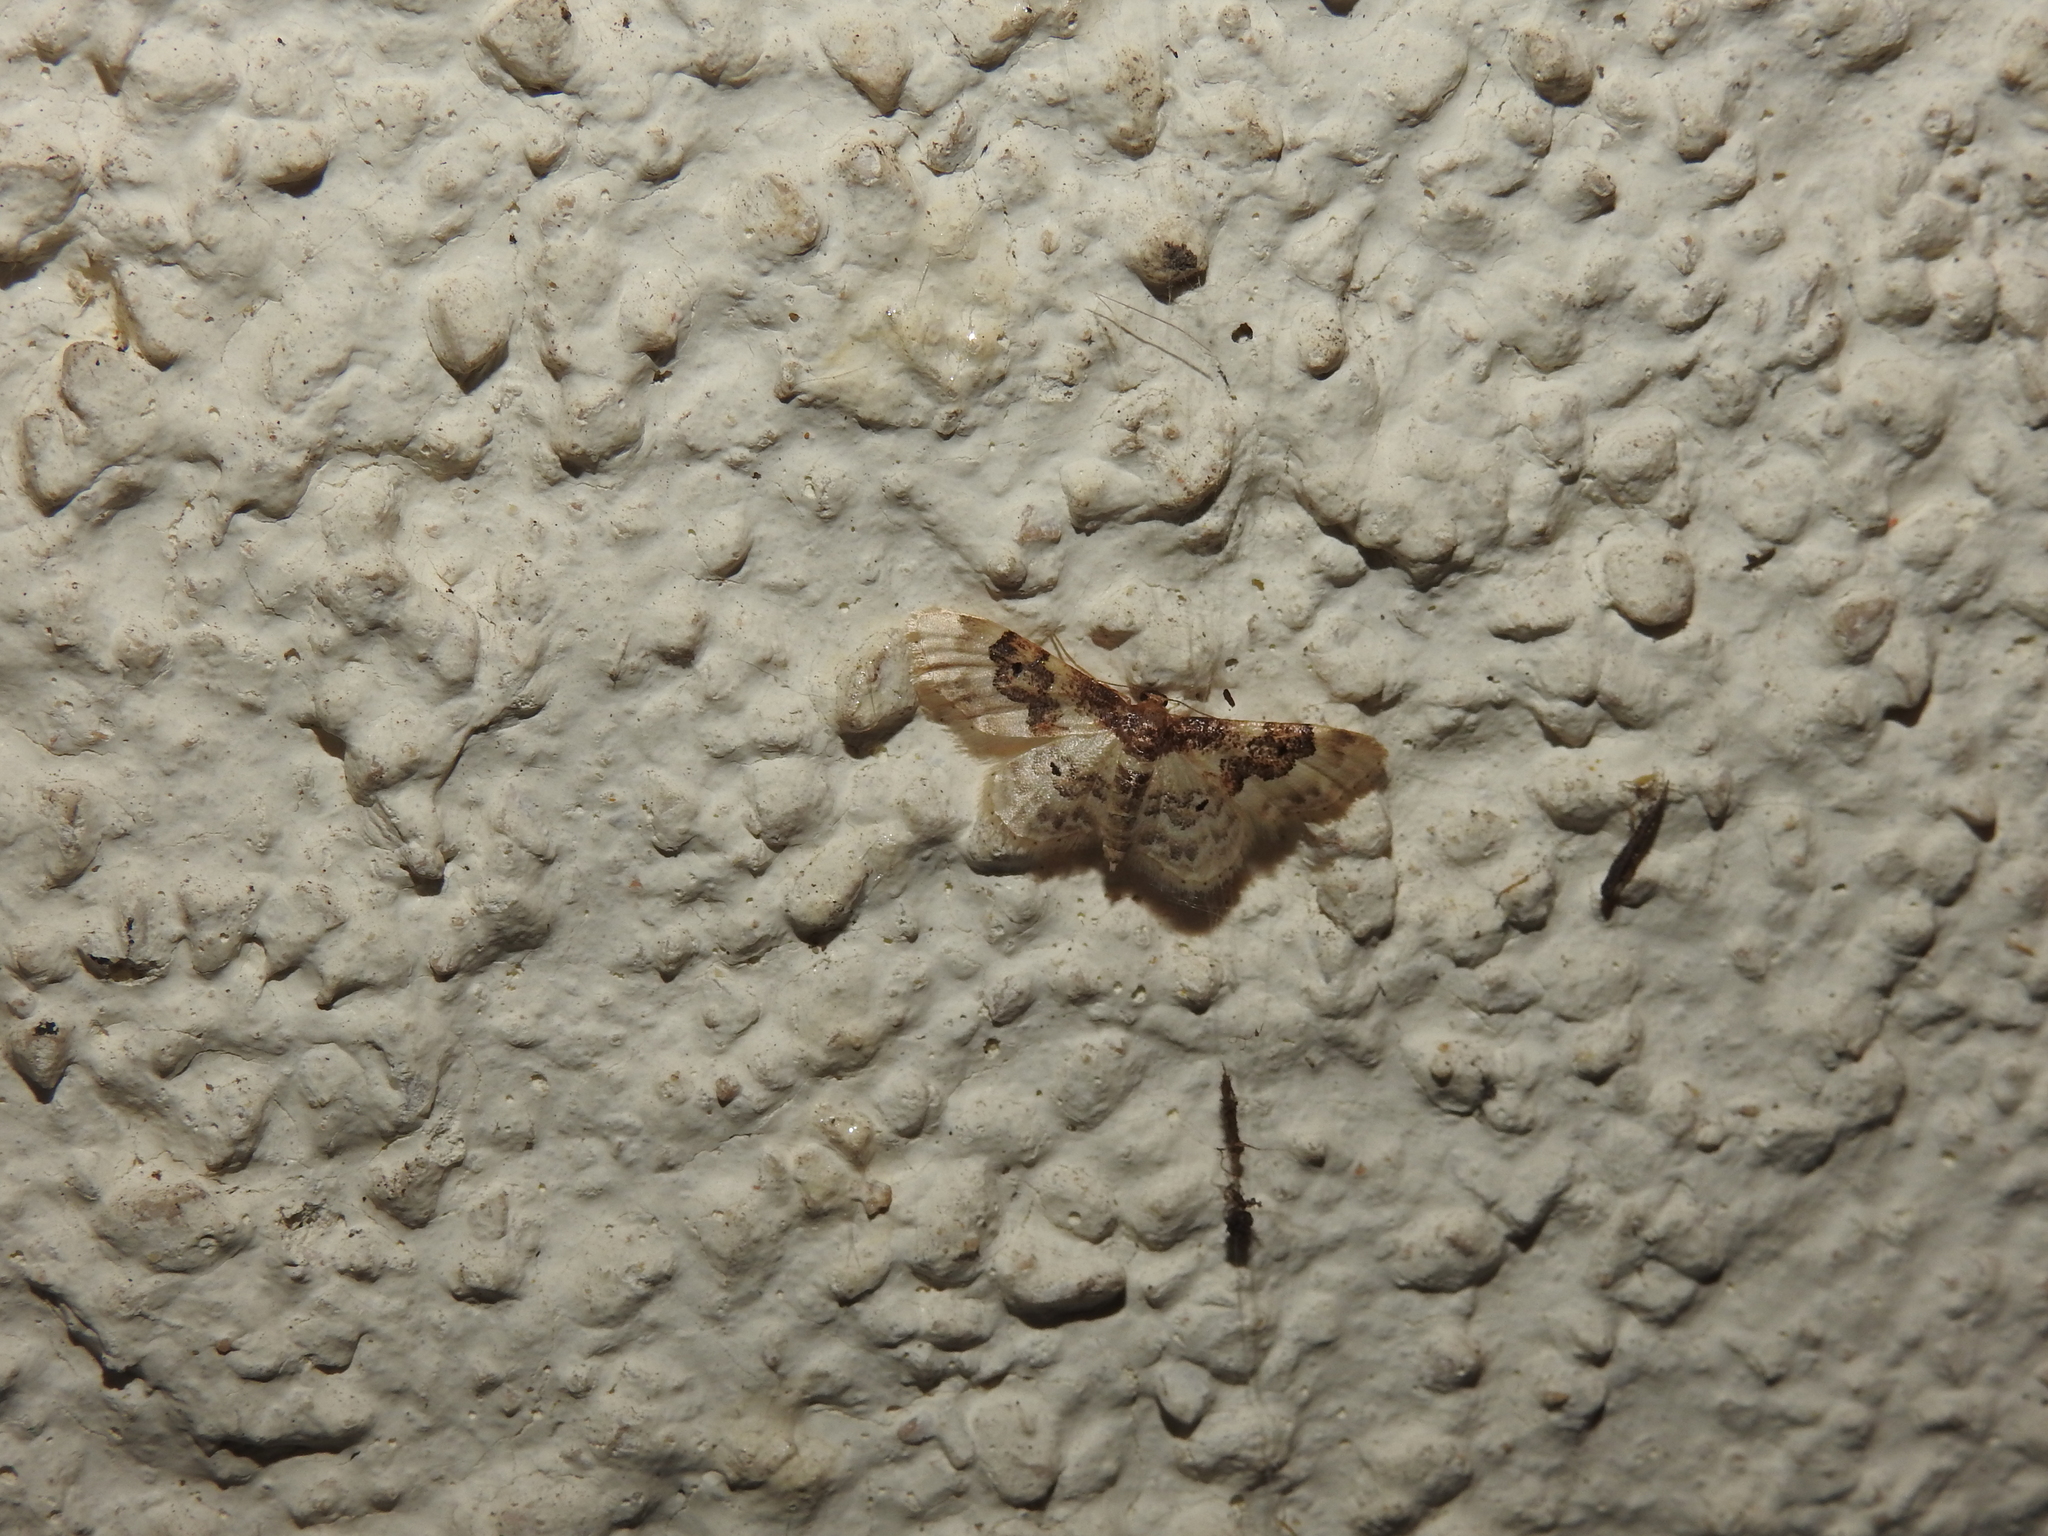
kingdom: Animalia
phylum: Arthropoda
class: Insecta
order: Lepidoptera
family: Geometridae
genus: Idaea
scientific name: Idaea rusticata
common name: Least carpet
